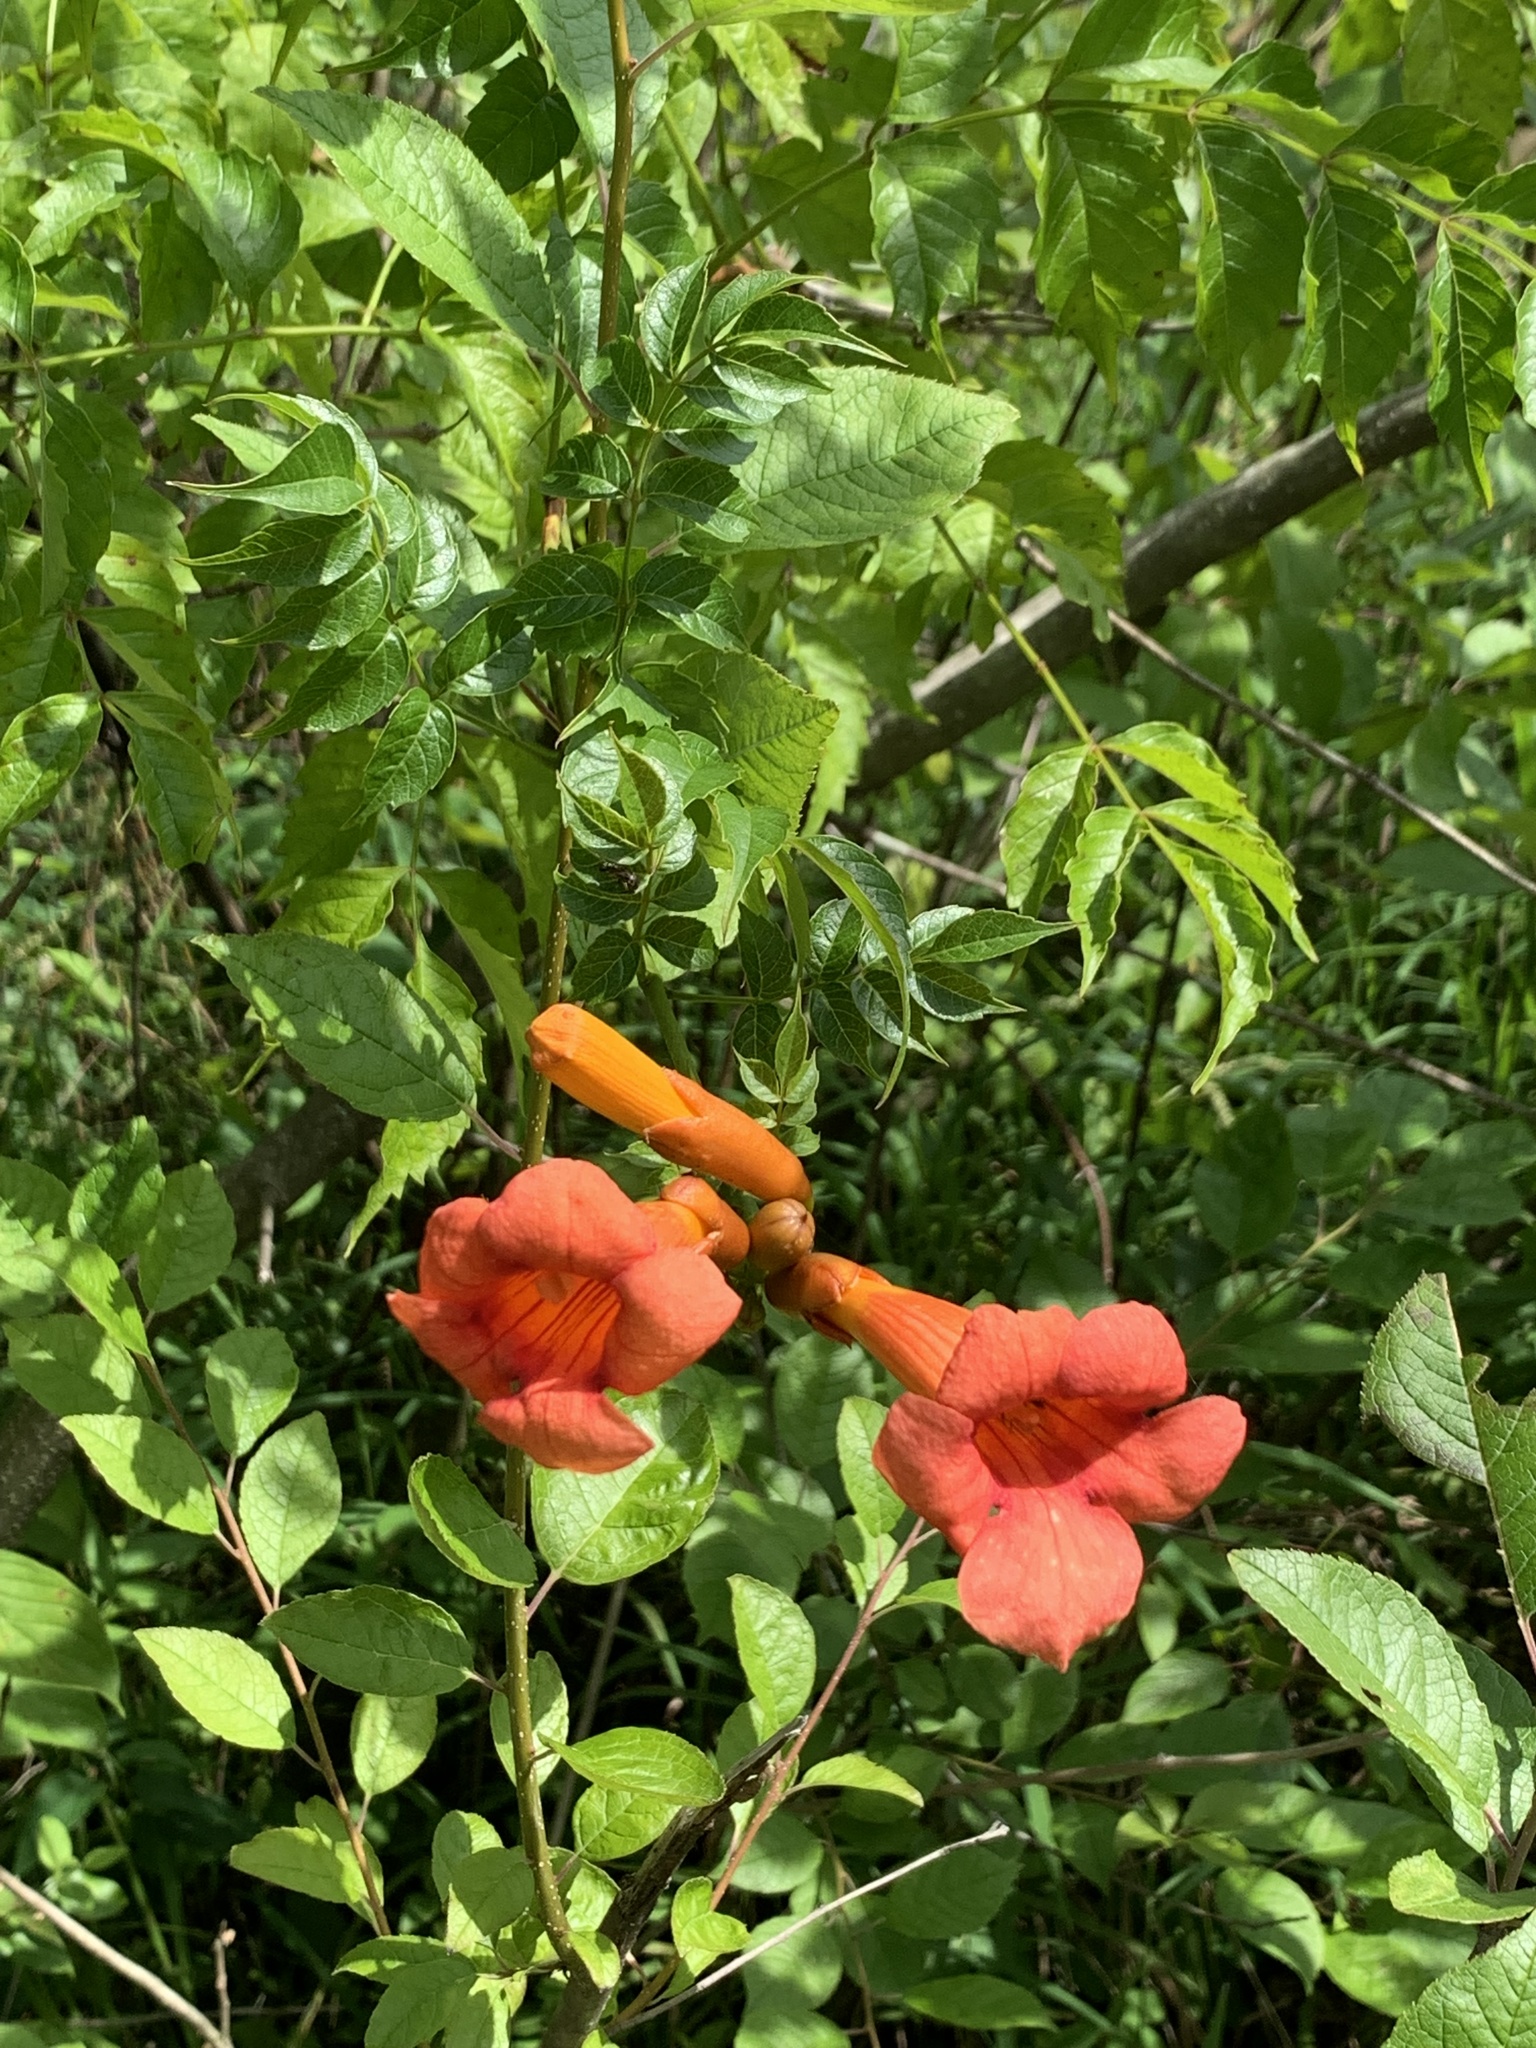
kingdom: Plantae
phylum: Tracheophyta
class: Magnoliopsida
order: Lamiales
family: Bignoniaceae
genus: Campsis
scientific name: Campsis radicans
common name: Trumpet-creeper
